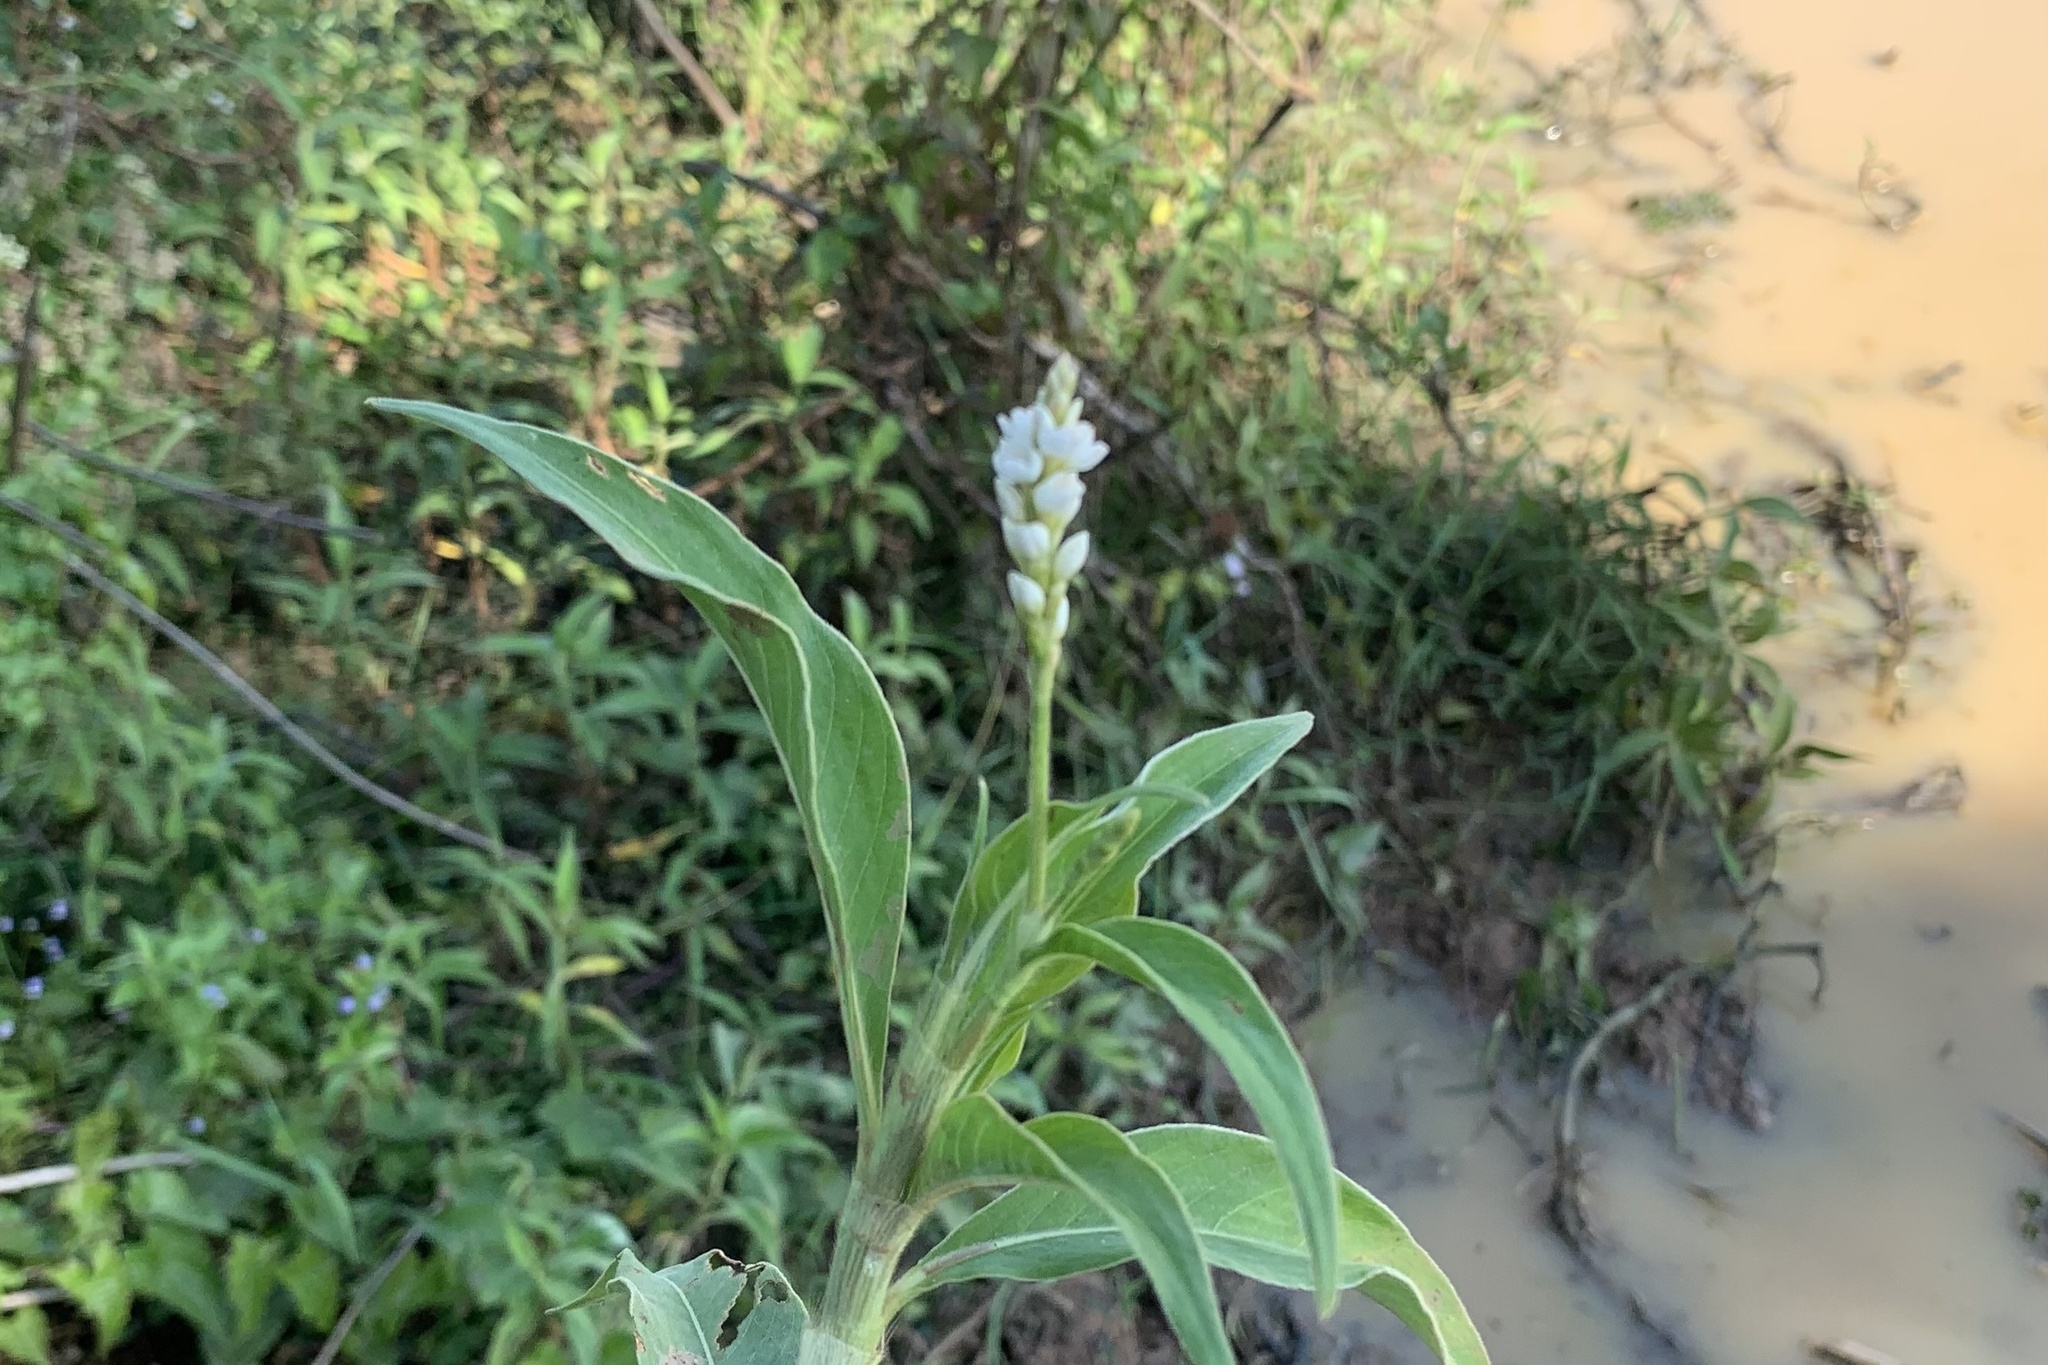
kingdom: Plantae
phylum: Tracheophyta
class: Magnoliopsida
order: Caryophyllales
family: Polygonaceae
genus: Persicaria
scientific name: Persicaria attenuata
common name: Hairy knotweed
